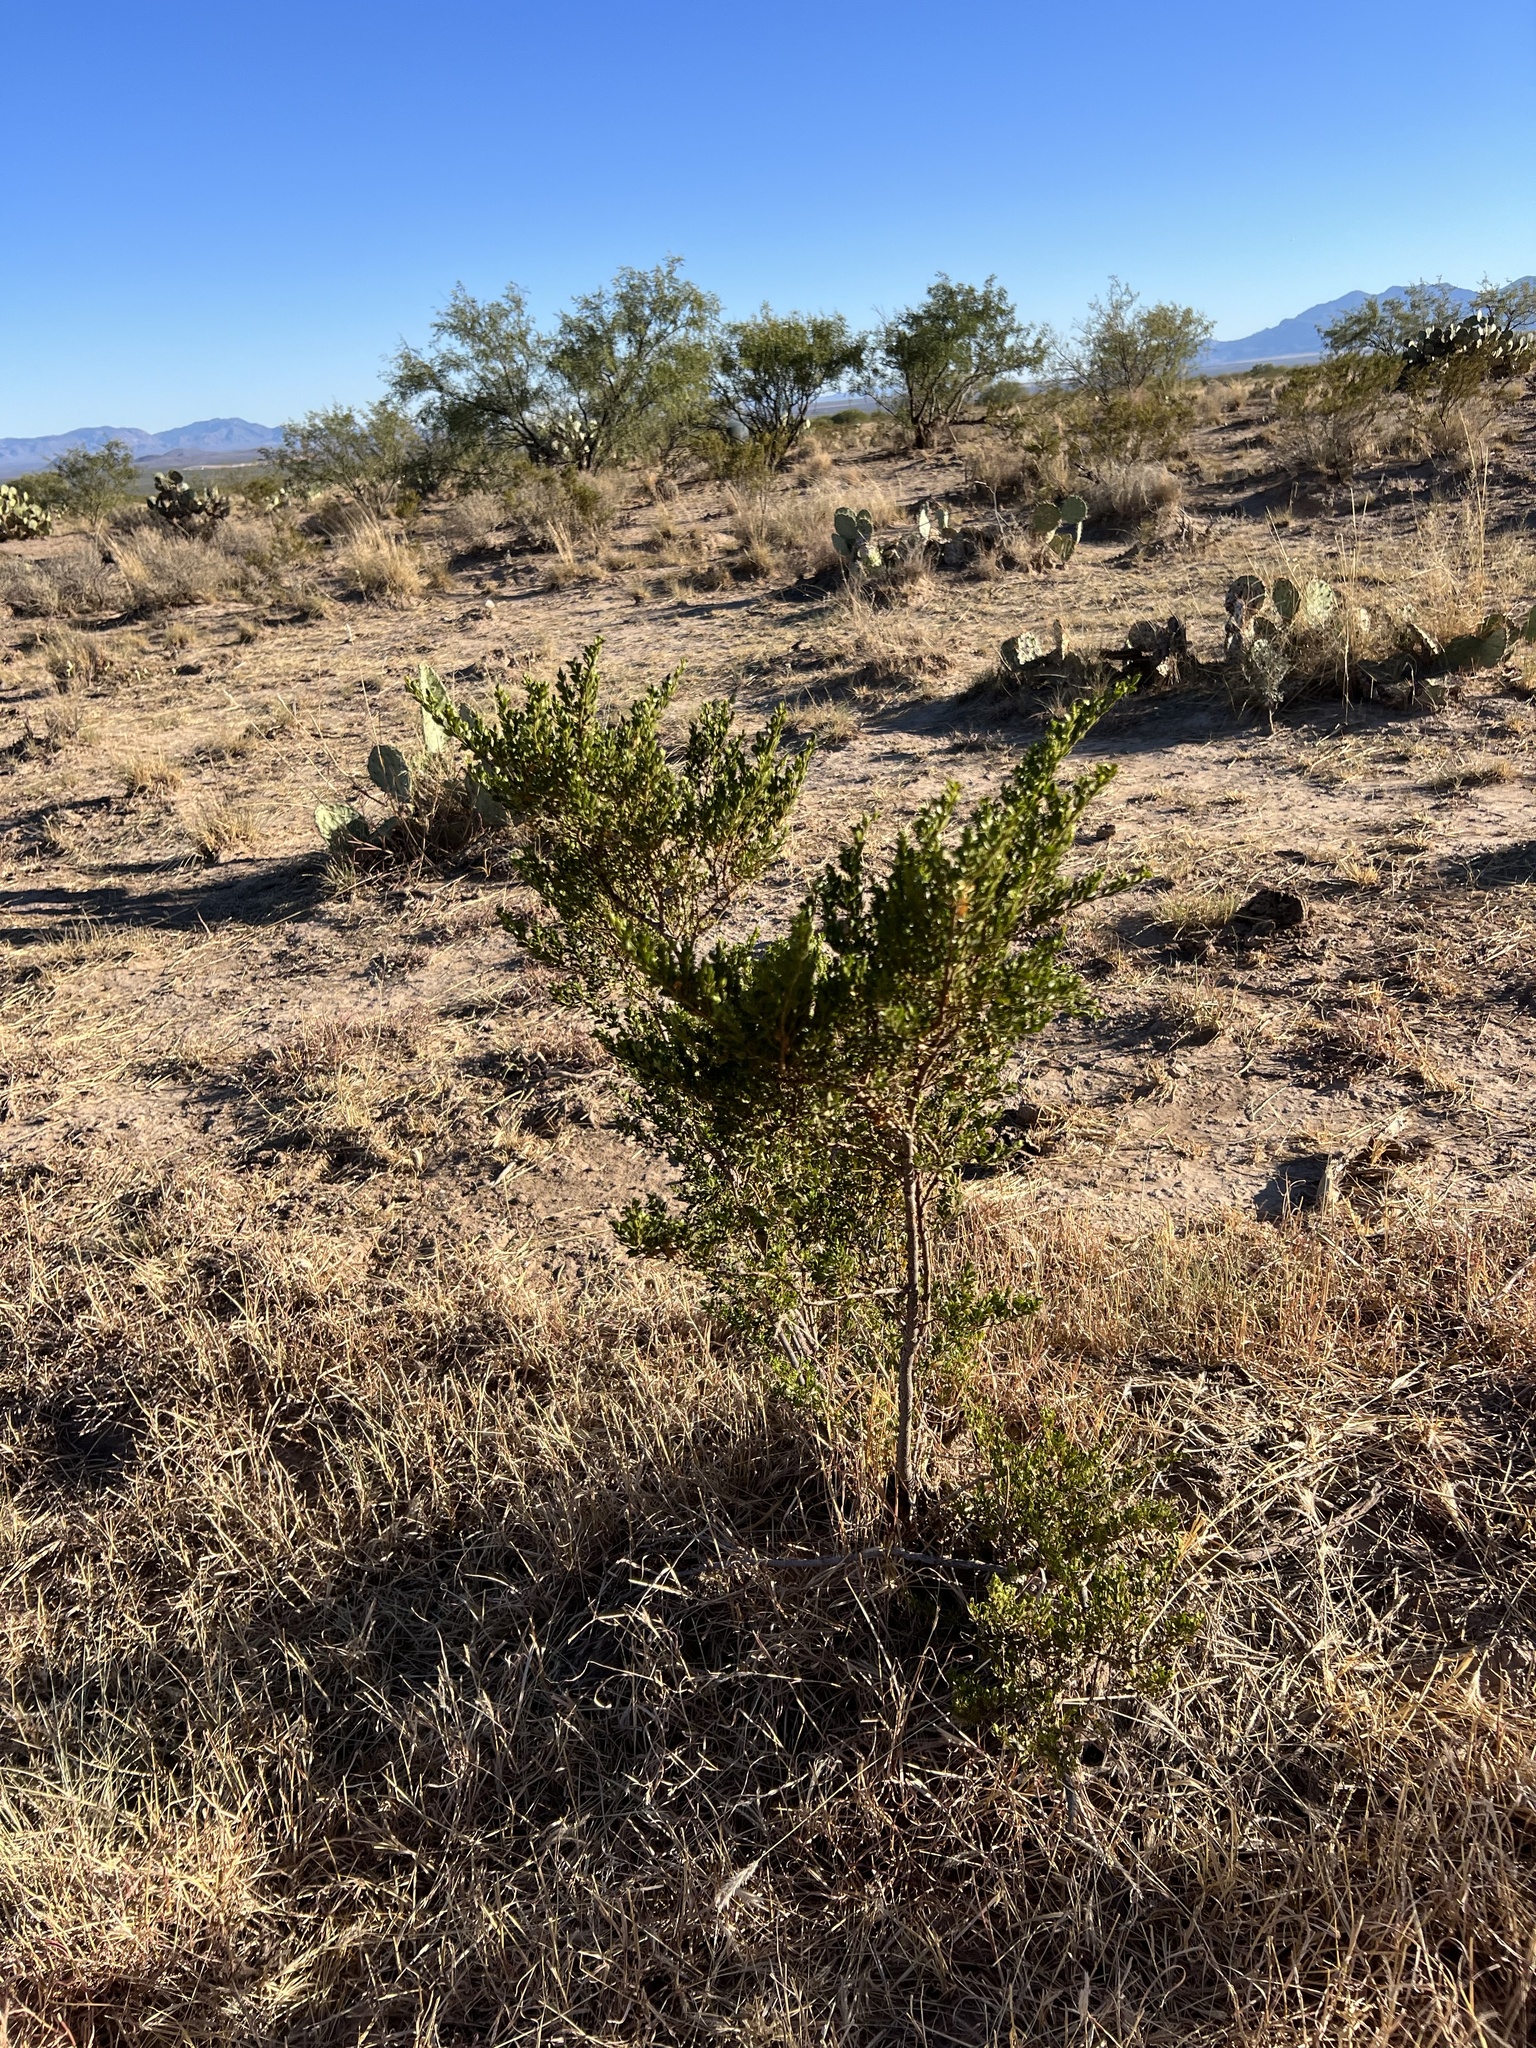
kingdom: Plantae
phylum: Tracheophyta
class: Magnoliopsida
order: Zygophyllales
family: Zygophyllaceae
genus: Larrea
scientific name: Larrea tridentata
